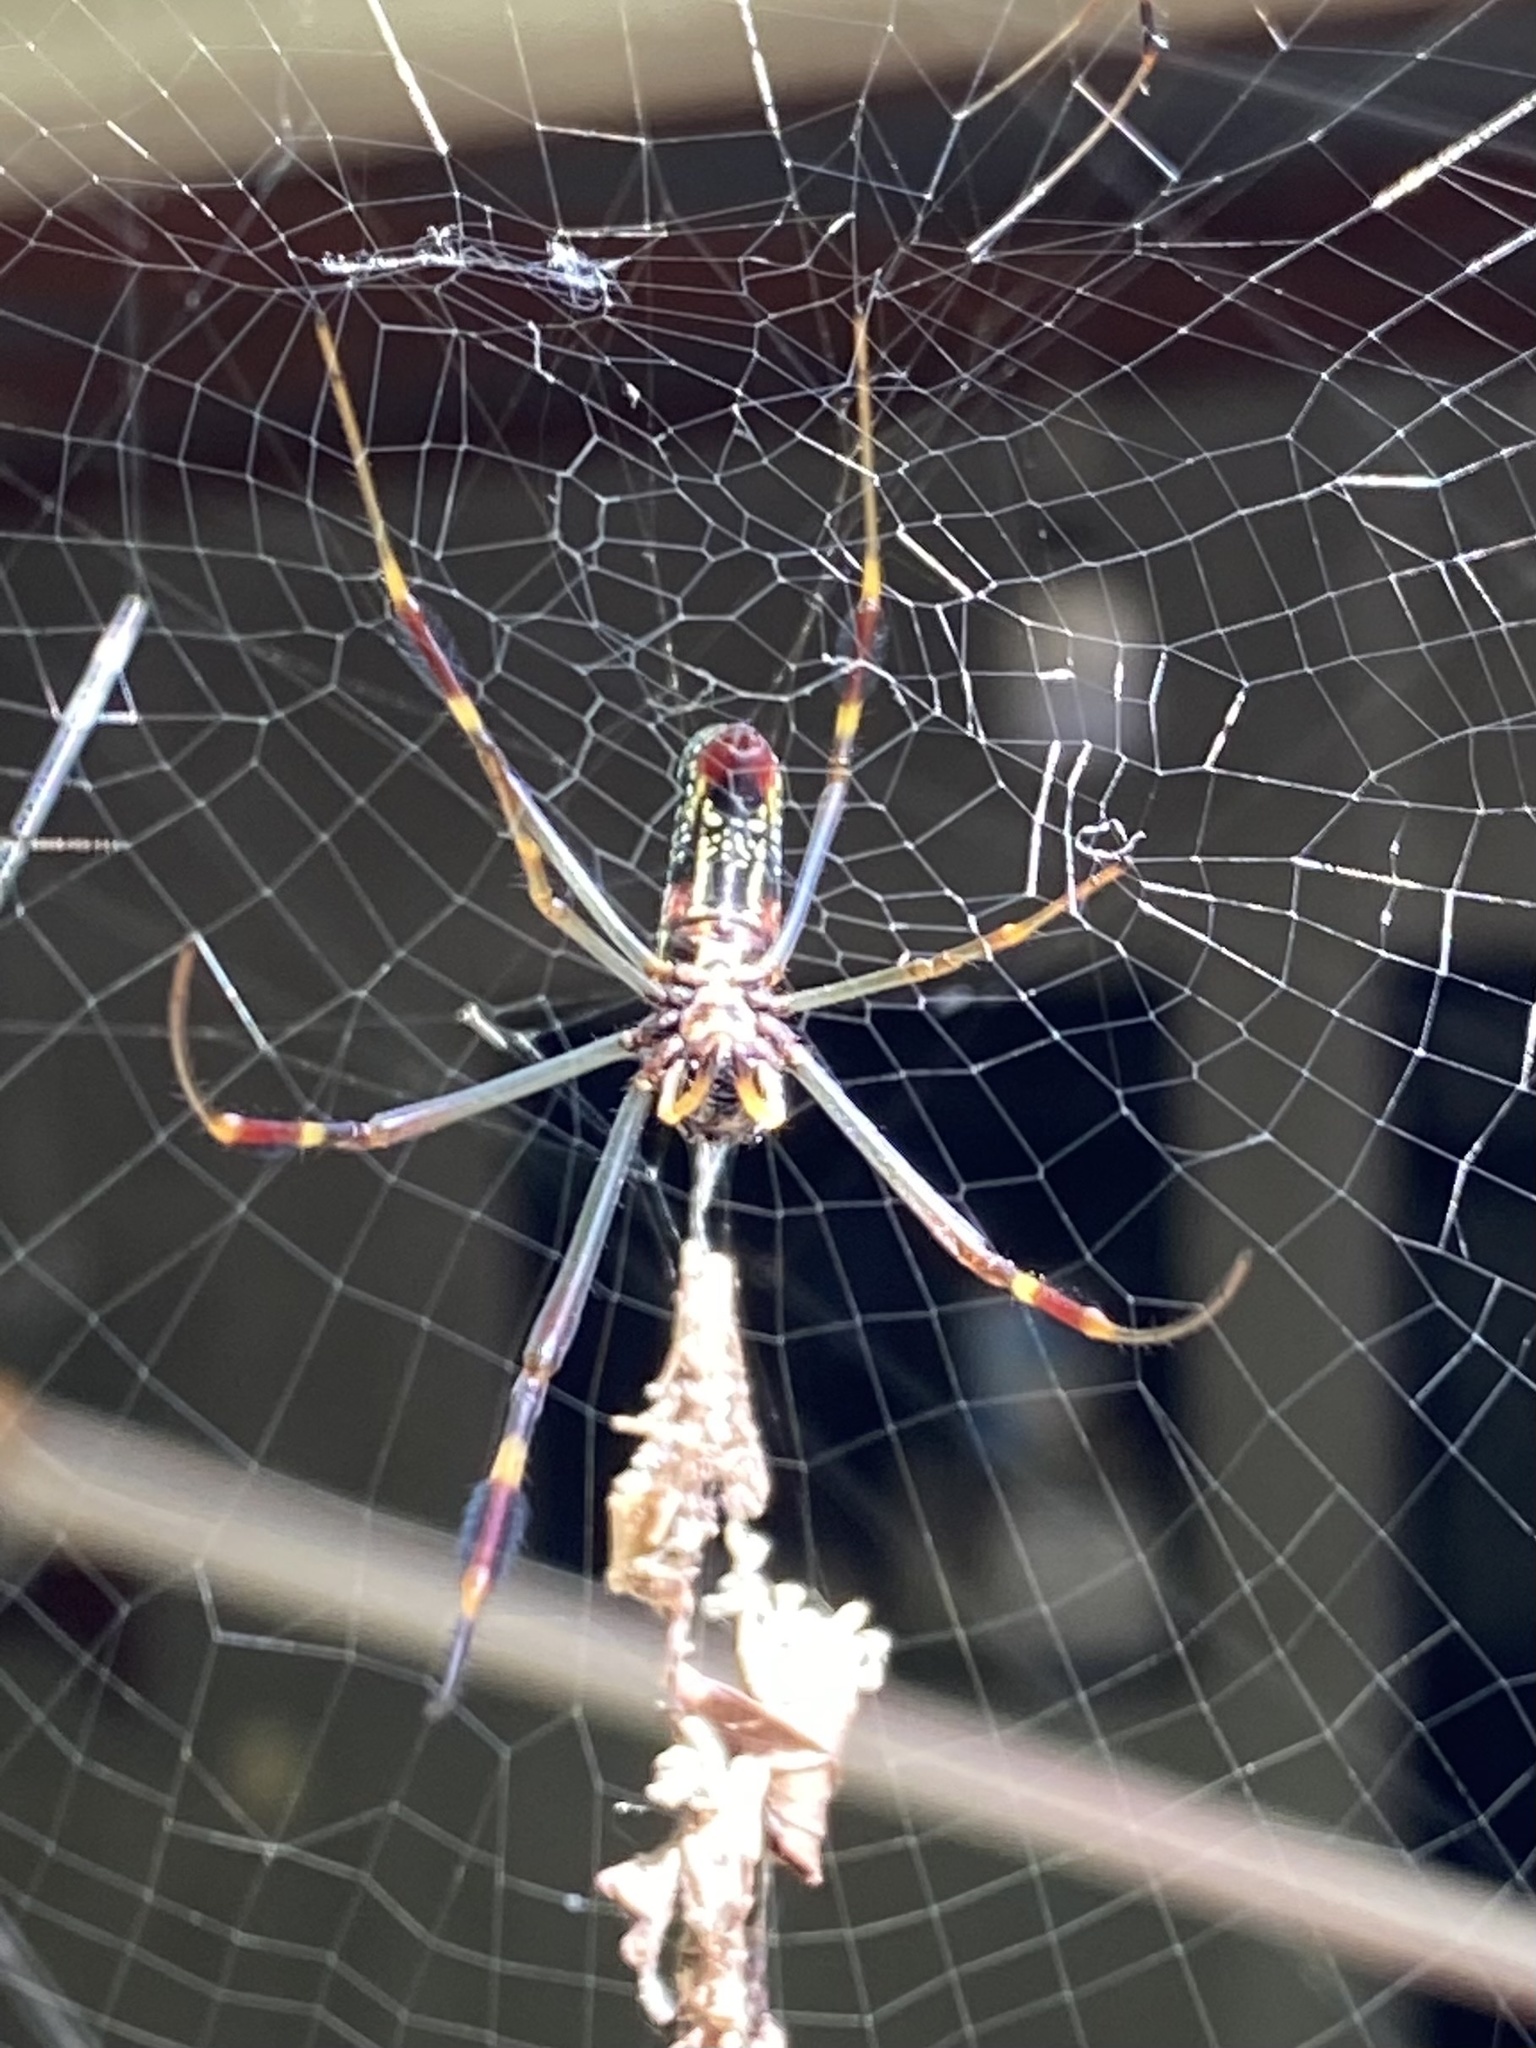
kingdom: Animalia
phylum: Arthropoda
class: Arachnida
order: Araneae
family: Araneidae
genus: Trichonephila
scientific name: Trichonephila clavipes
